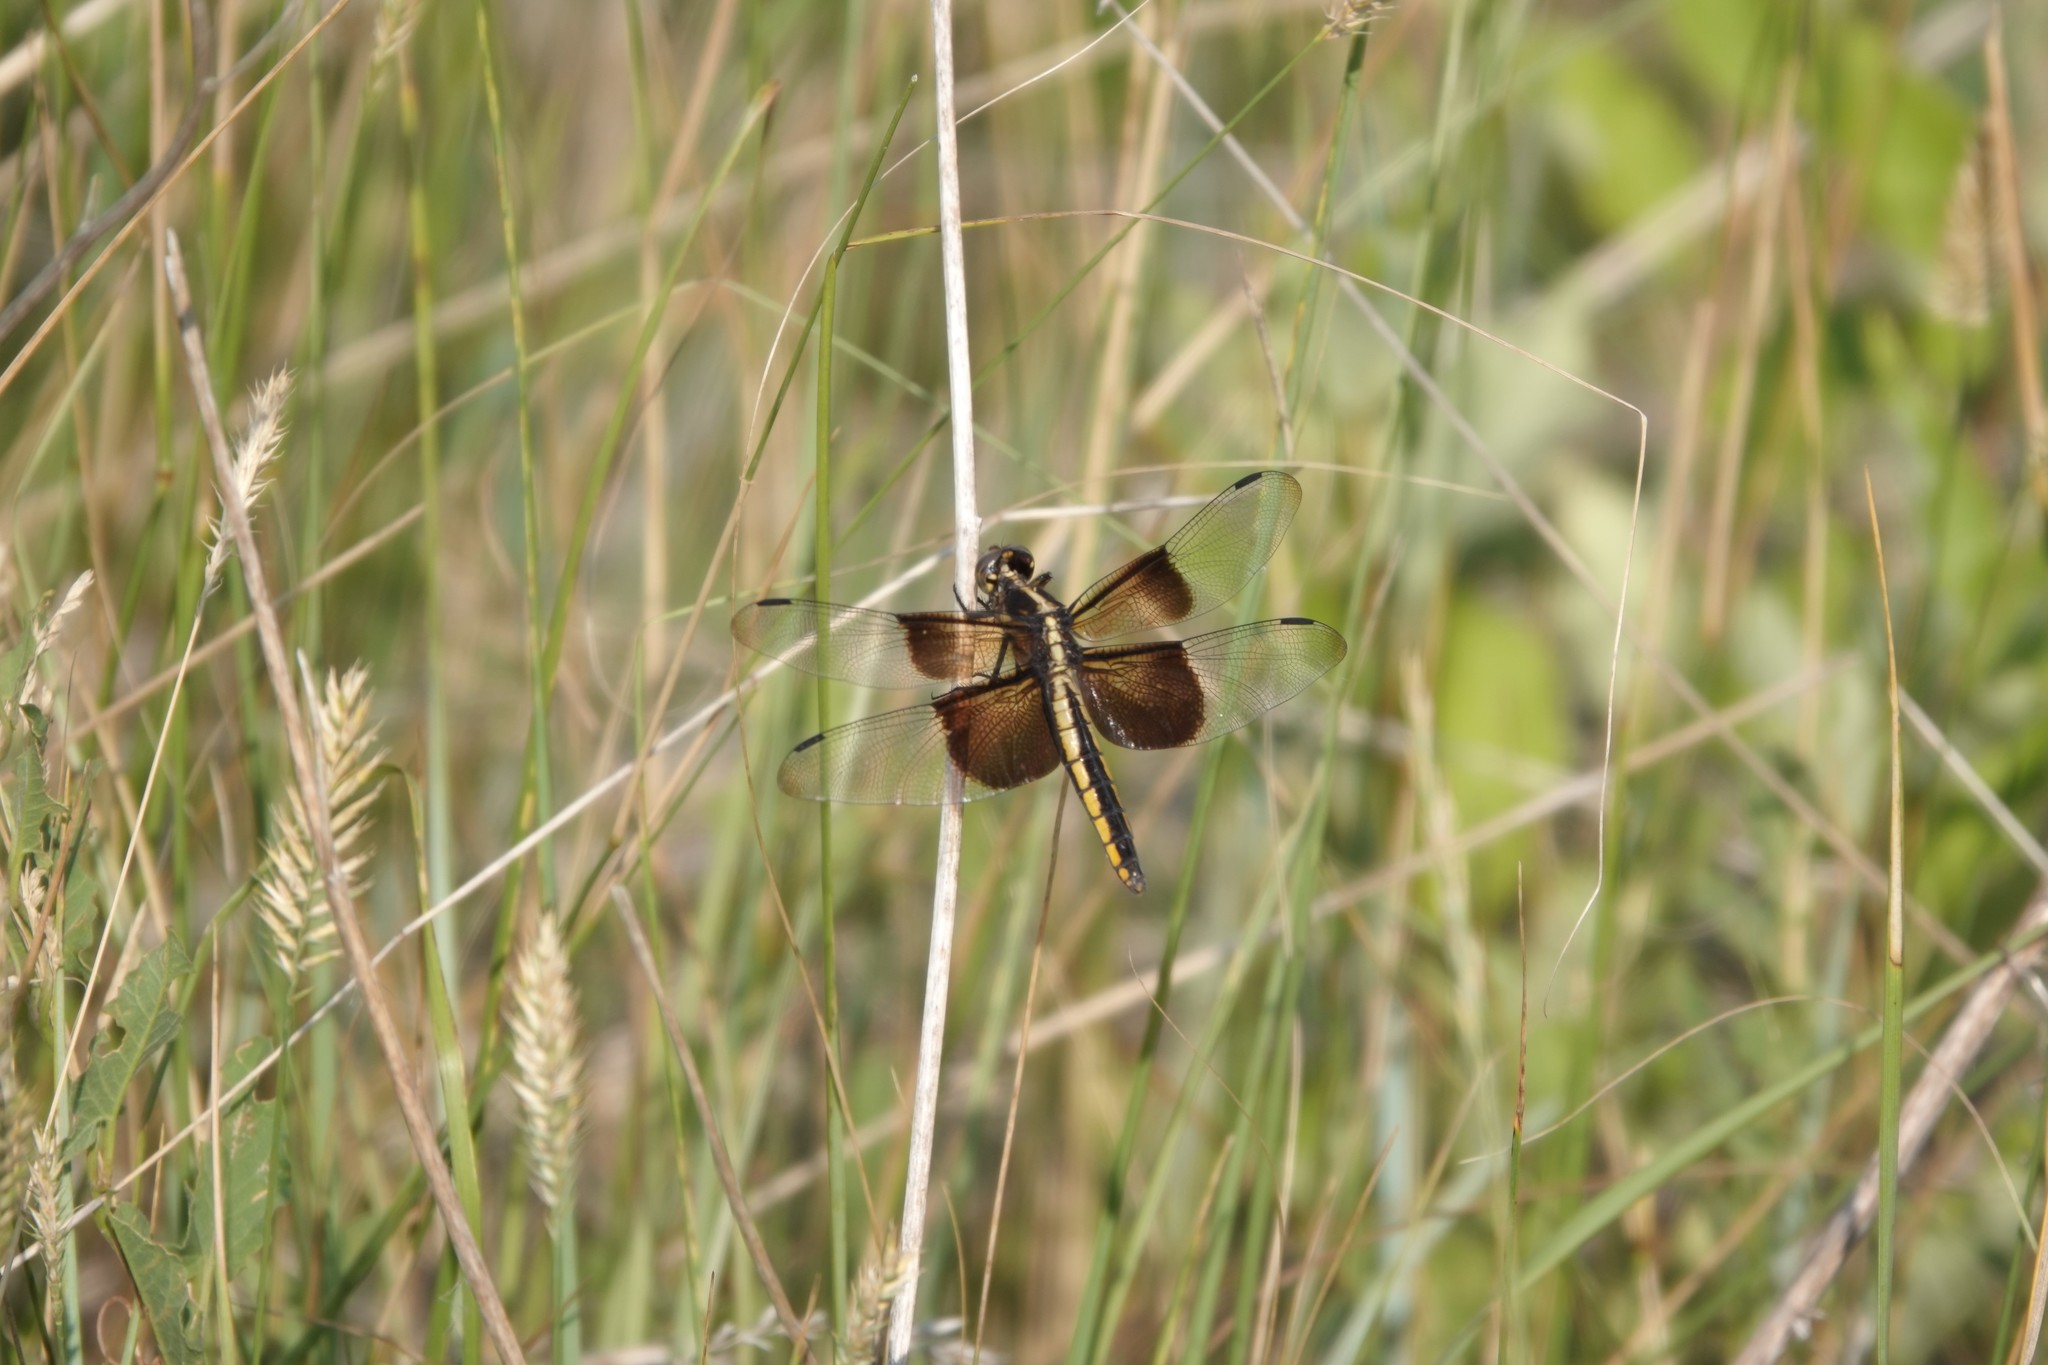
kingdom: Animalia
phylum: Arthropoda
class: Insecta
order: Odonata
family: Libellulidae
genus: Libellula
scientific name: Libellula luctuosa
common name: Widow skimmer
